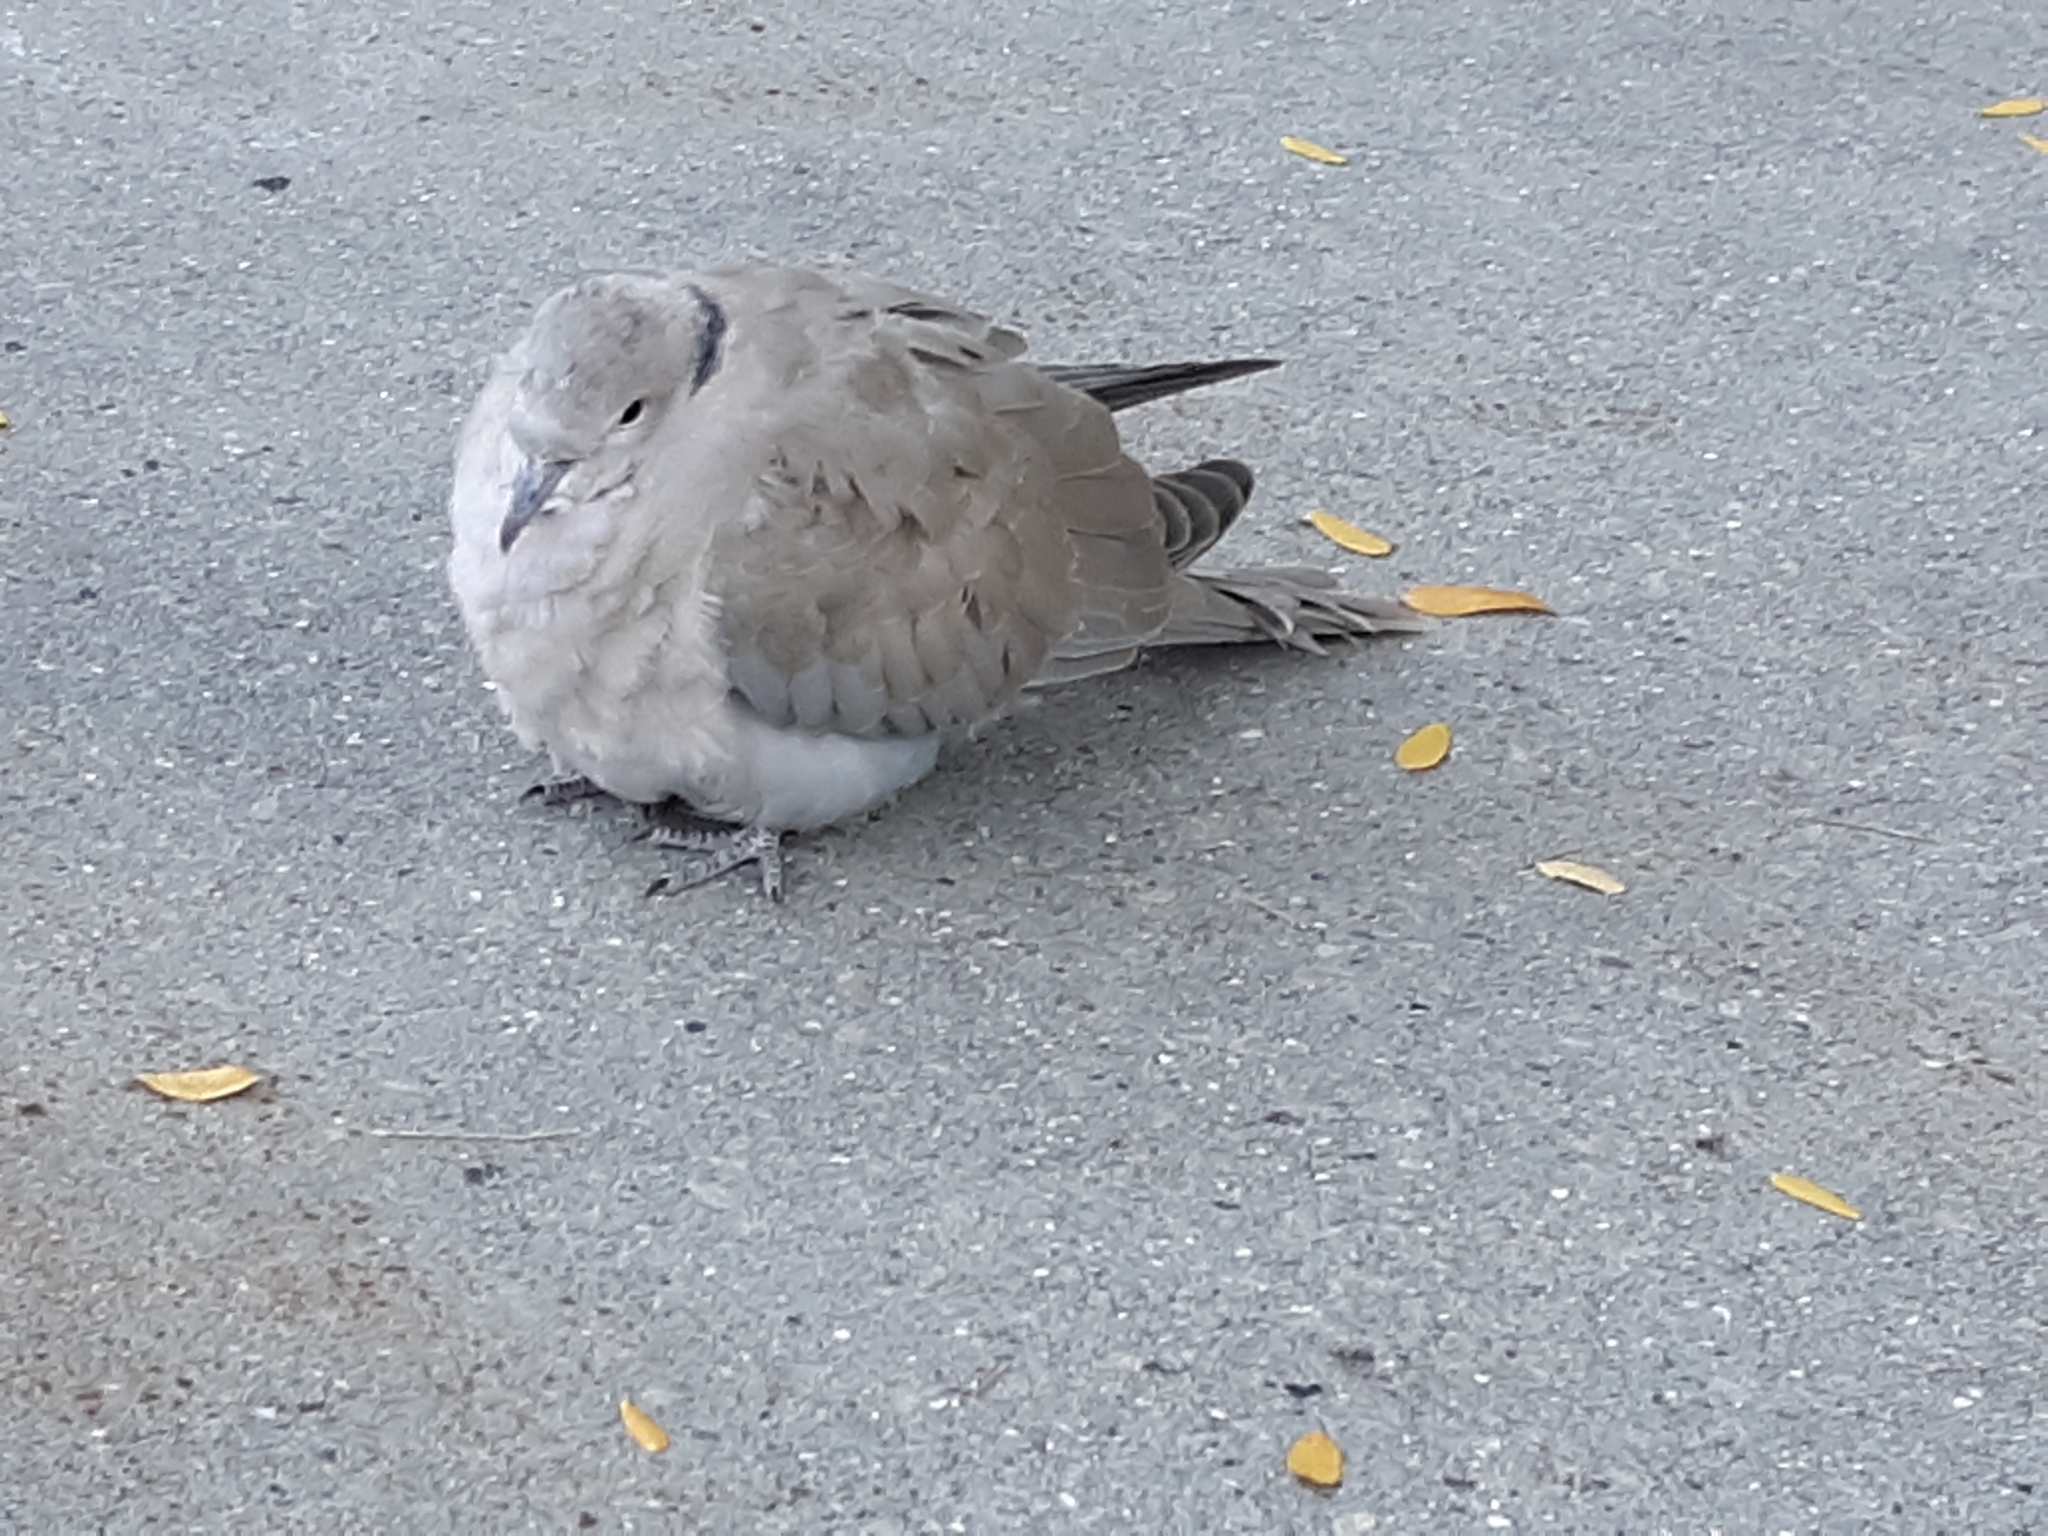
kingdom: Animalia
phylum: Chordata
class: Aves
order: Columbiformes
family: Columbidae
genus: Streptopelia
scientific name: Streptopelia decaocto
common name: Eurasian collared dove
